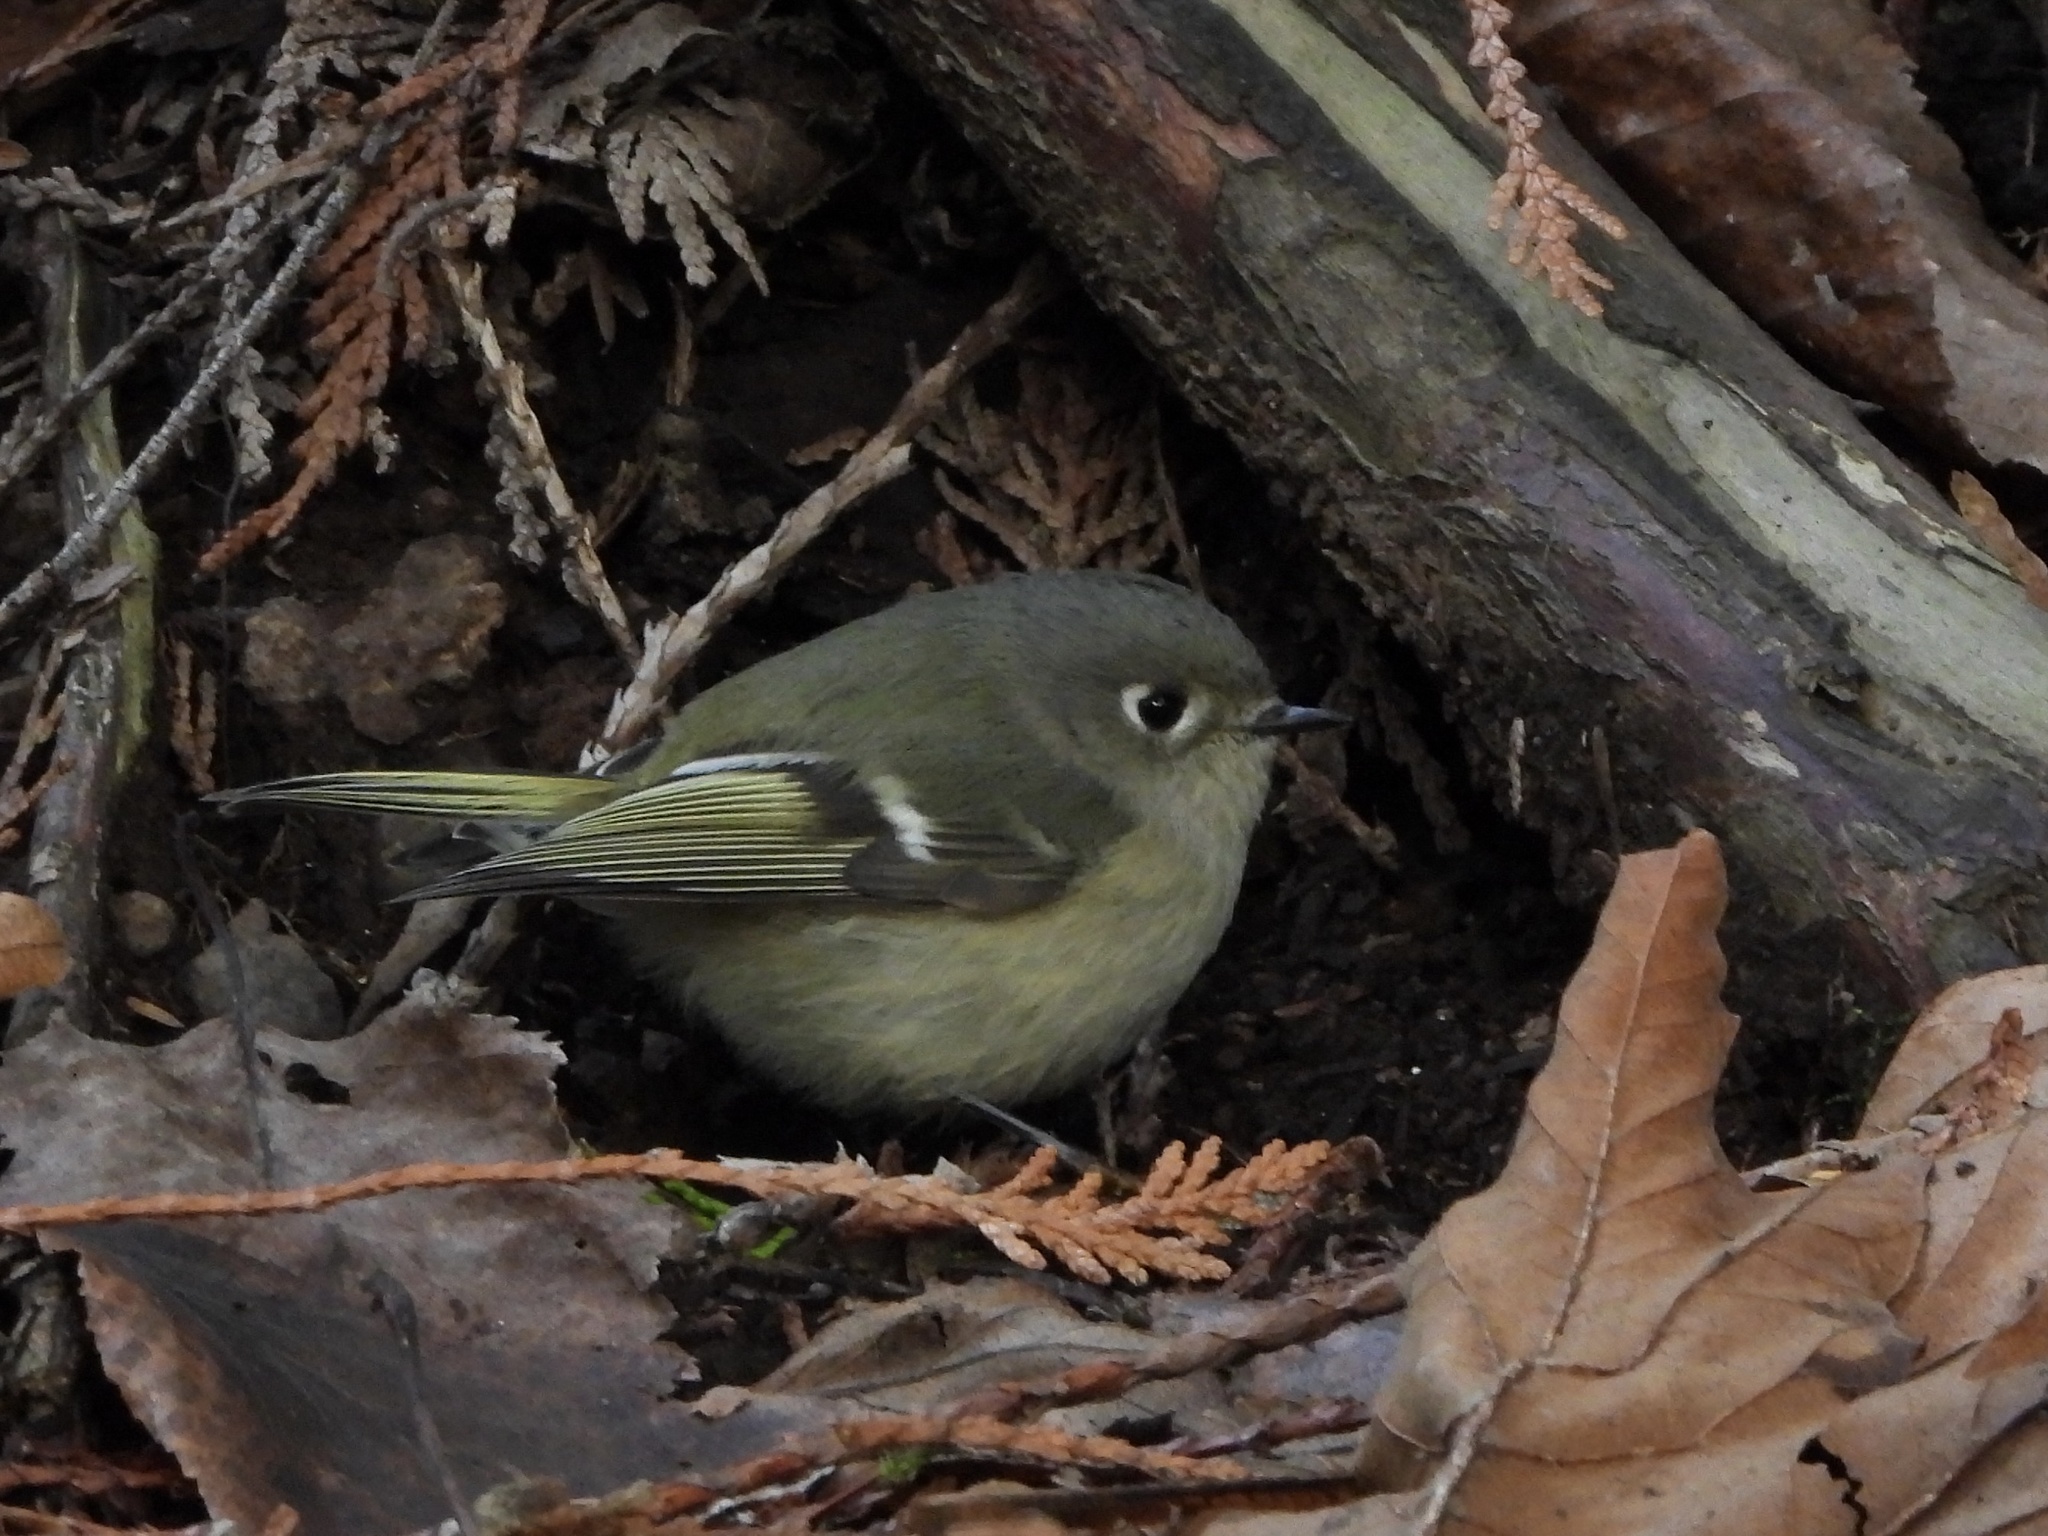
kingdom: Animalia
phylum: Chordata
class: Aves
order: Passeriformes
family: Regulidae
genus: Regulus
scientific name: Regulus calendula
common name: Ruby-crowned kinglet
